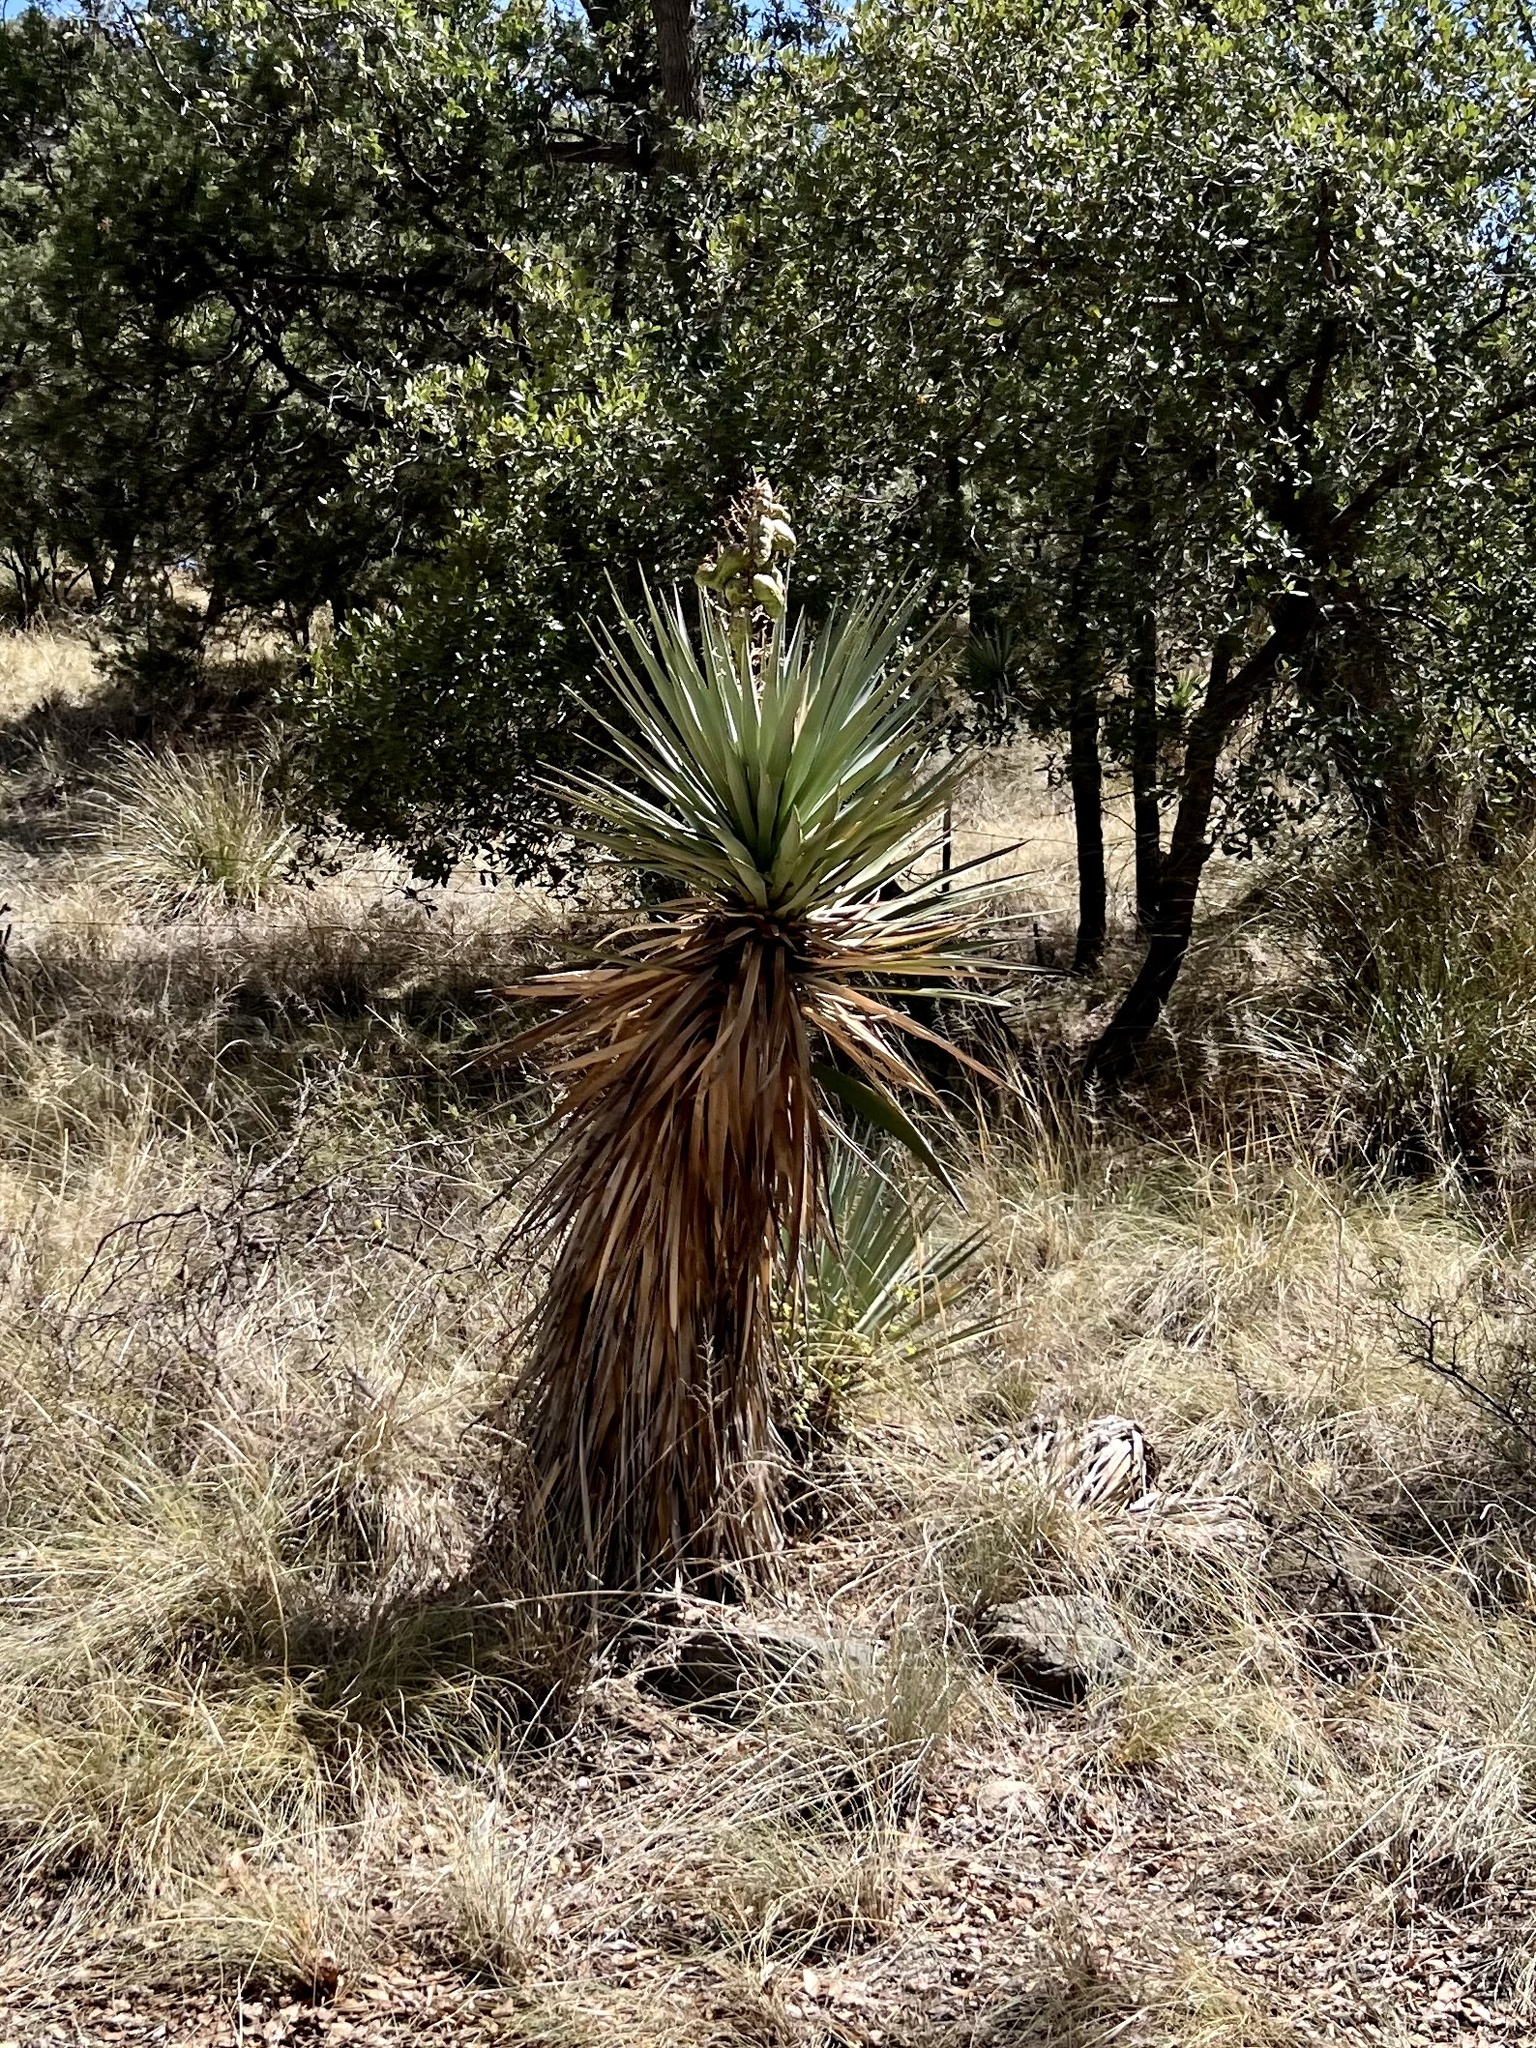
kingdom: Plantae
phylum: Tracheophyta
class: Liliopsida
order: Asparagales
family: Asparagaceae
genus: Yucca
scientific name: Yucca schottii
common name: Hoary yucca
